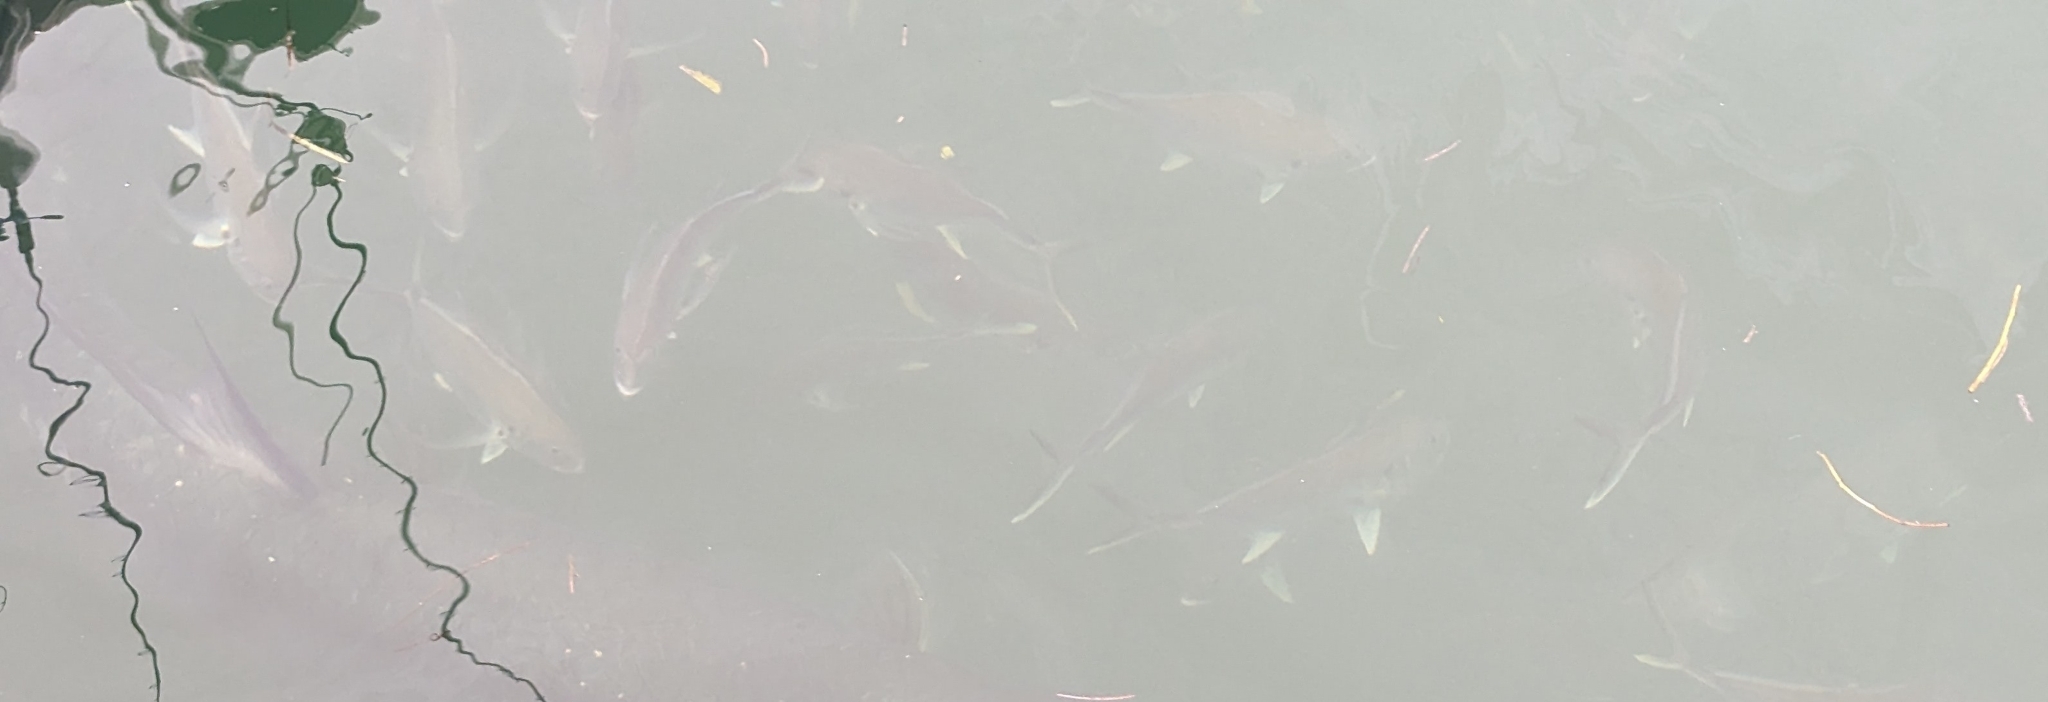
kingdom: Animalia
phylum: Chordata
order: Perciformes
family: Carangidae
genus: Caranx
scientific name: Caranx hippos
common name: Common jack
